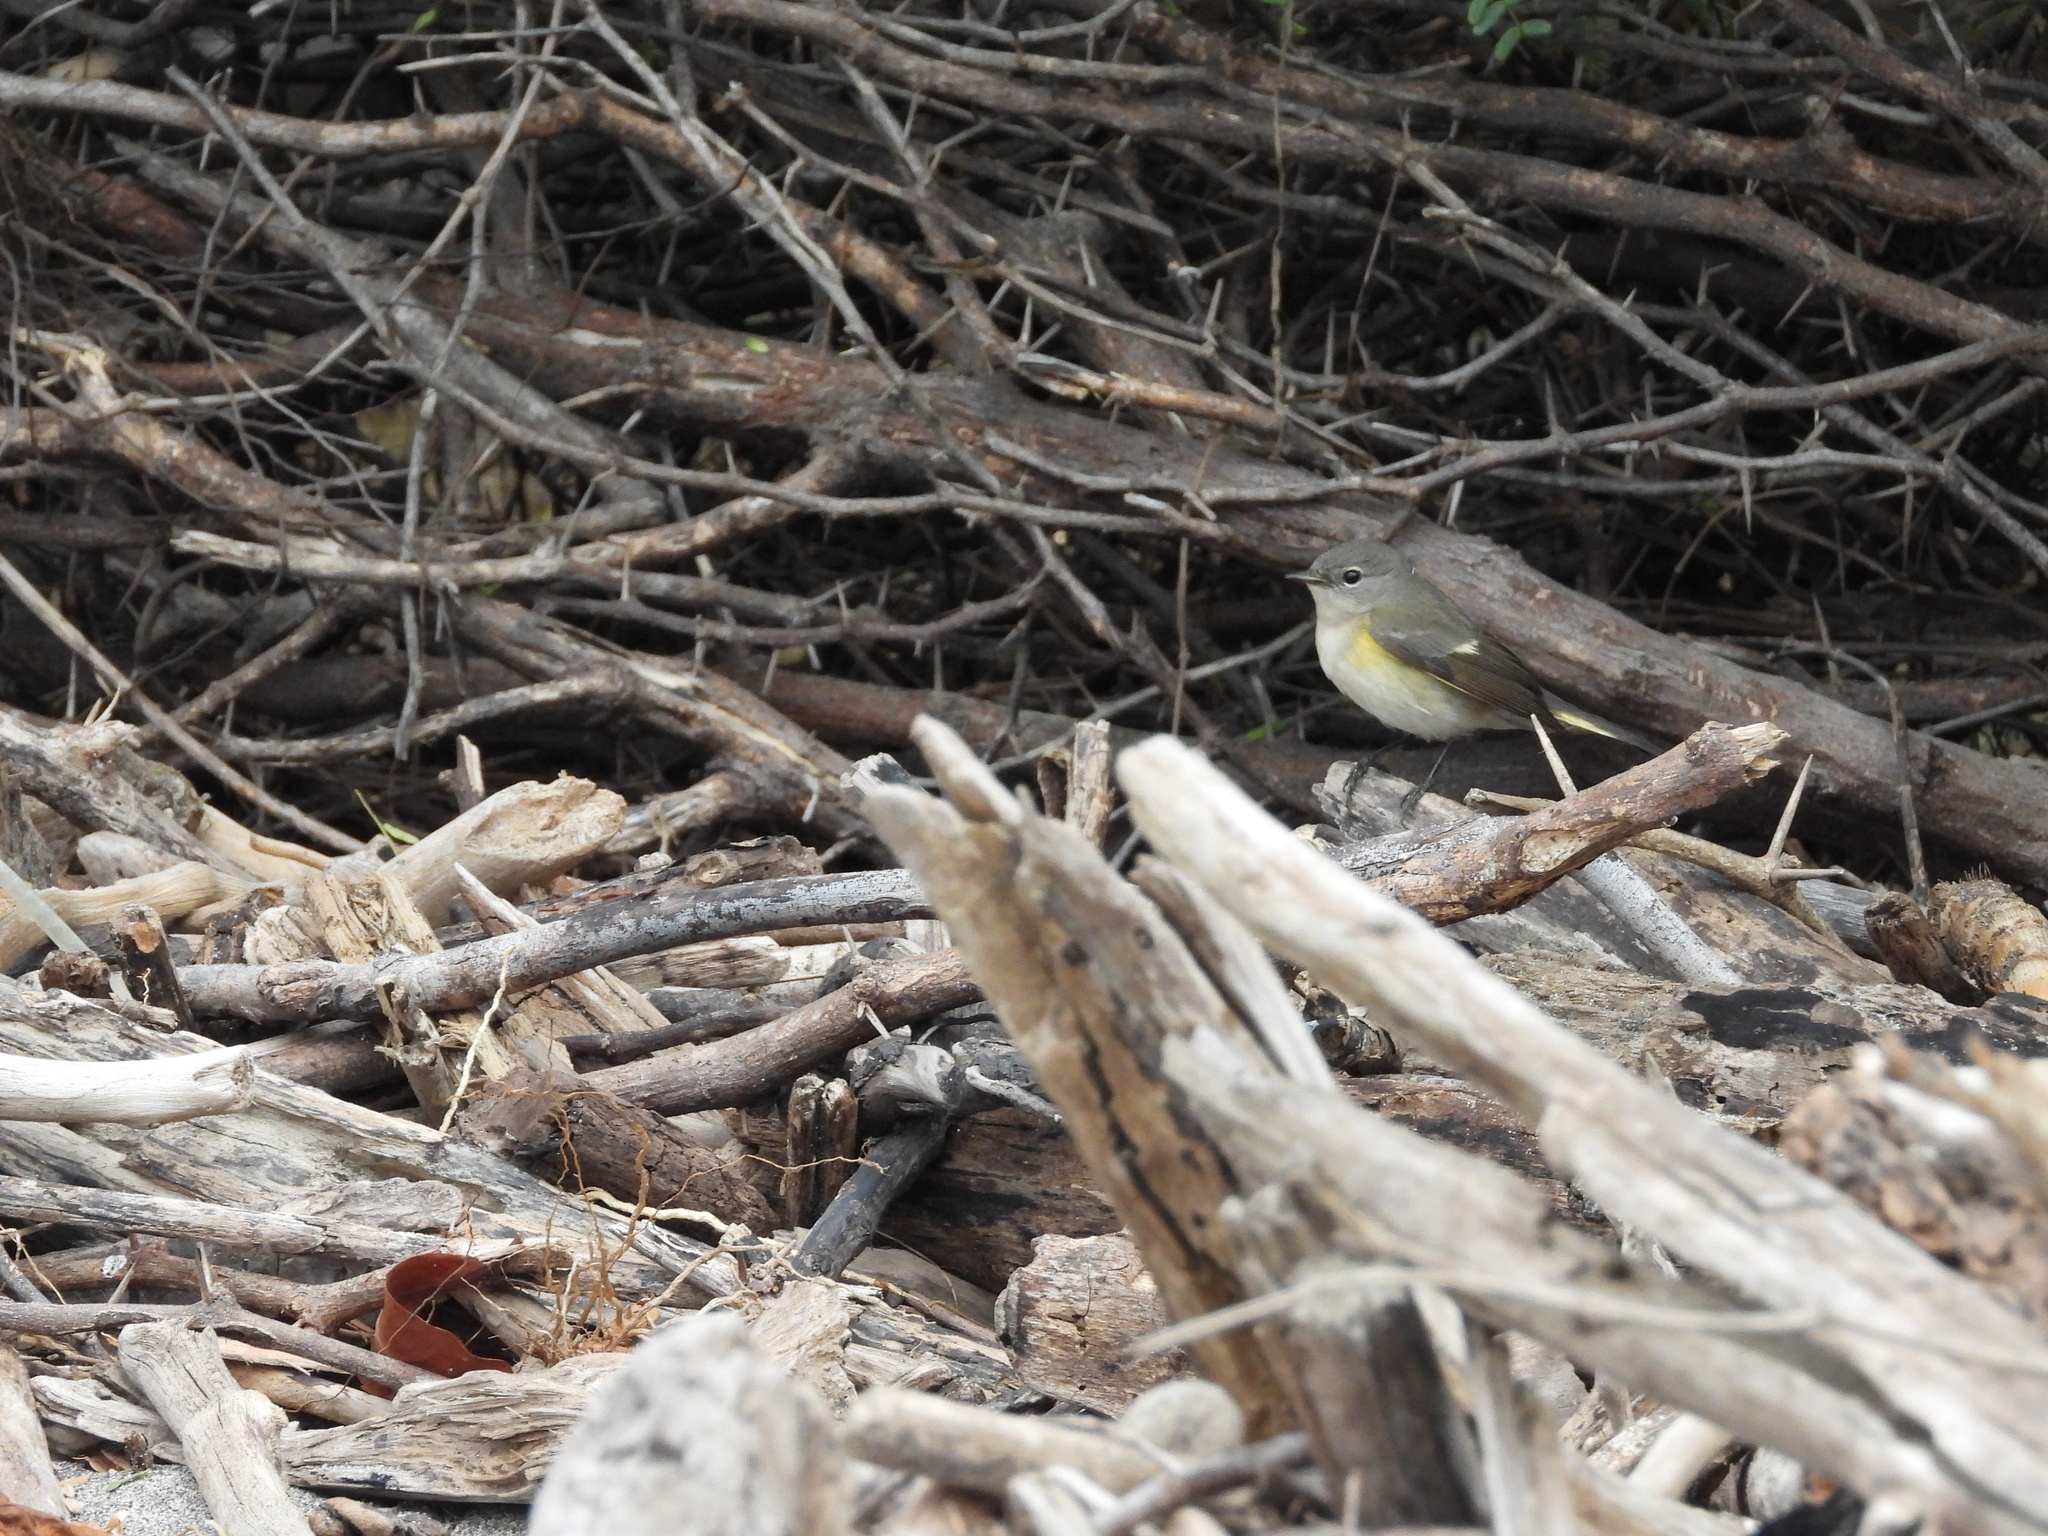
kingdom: Animalia
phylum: Chordata
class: Aves
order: Passeriformes
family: Parulidae
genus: Setophaga
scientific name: Setophaga ruticilla
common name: American redstart
